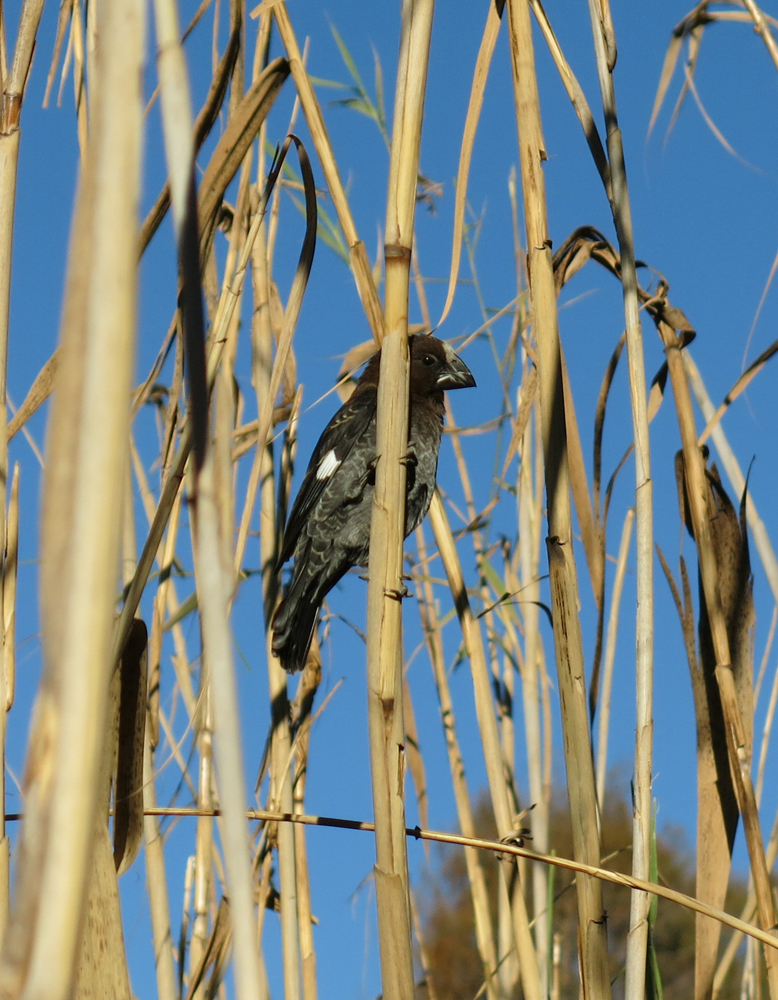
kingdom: Animalia
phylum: Chordata
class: Aves
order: Passeriformes
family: Ploceidae
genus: Amblyospiza
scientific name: Amblyospiza albifrons
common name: Thick-billed weaver
